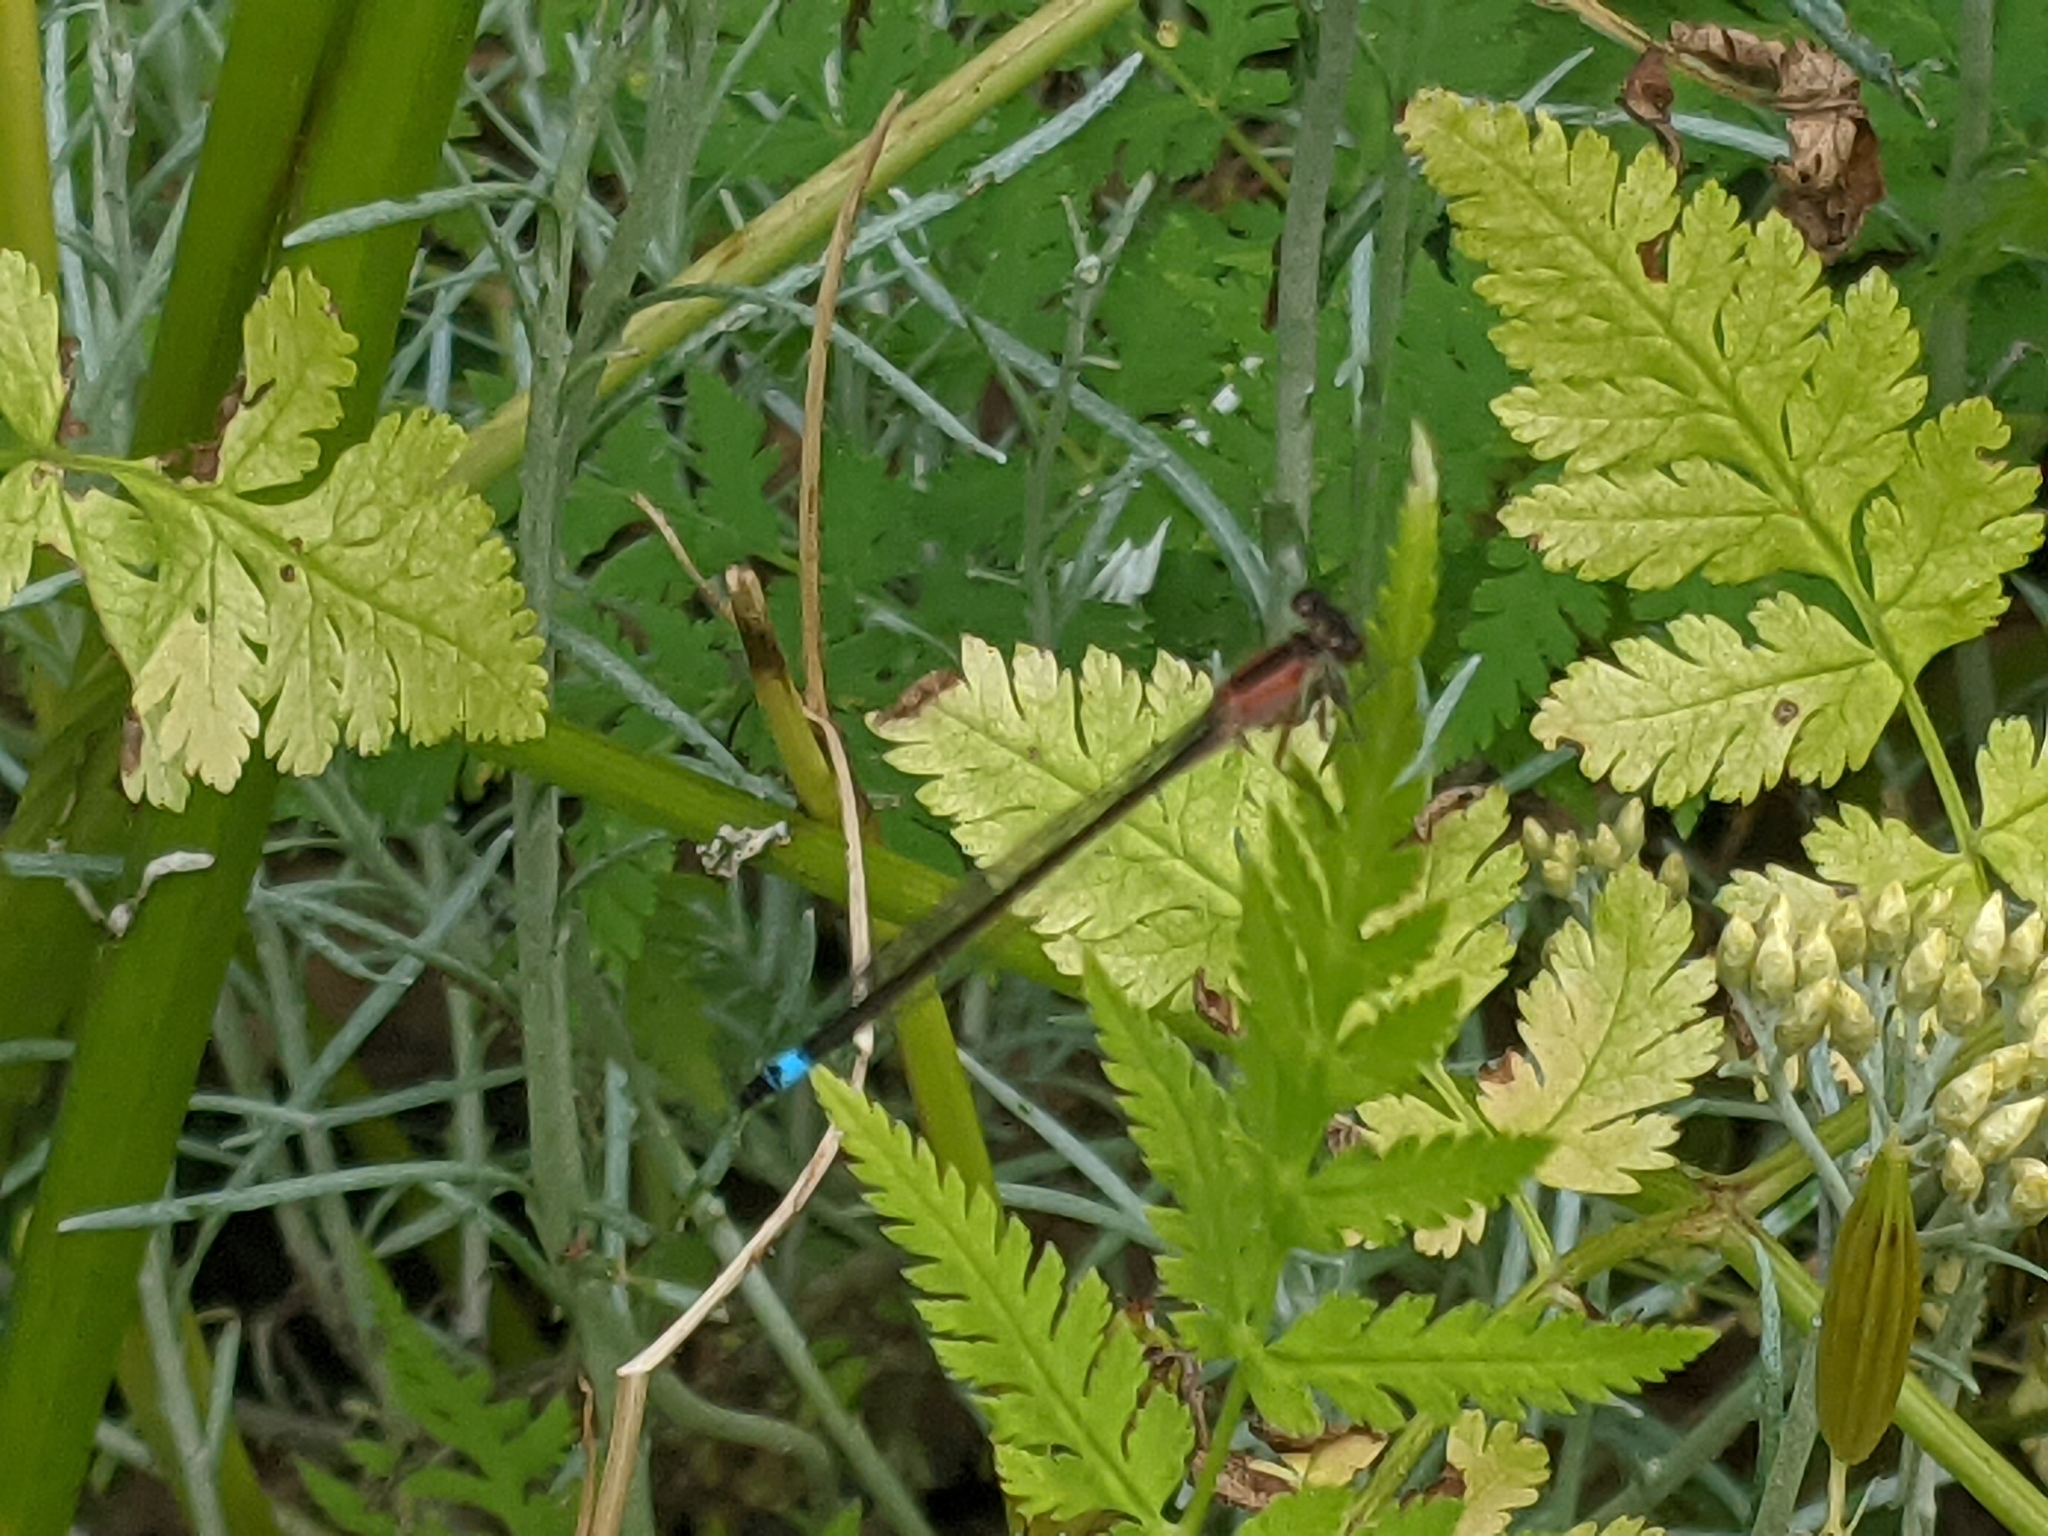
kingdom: Animalia
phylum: Arthropoda
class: Insecta
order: Odonata
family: Coenagrionidae
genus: Ischnura
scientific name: Ischnura elegans
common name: Blue-tailed damselfly
